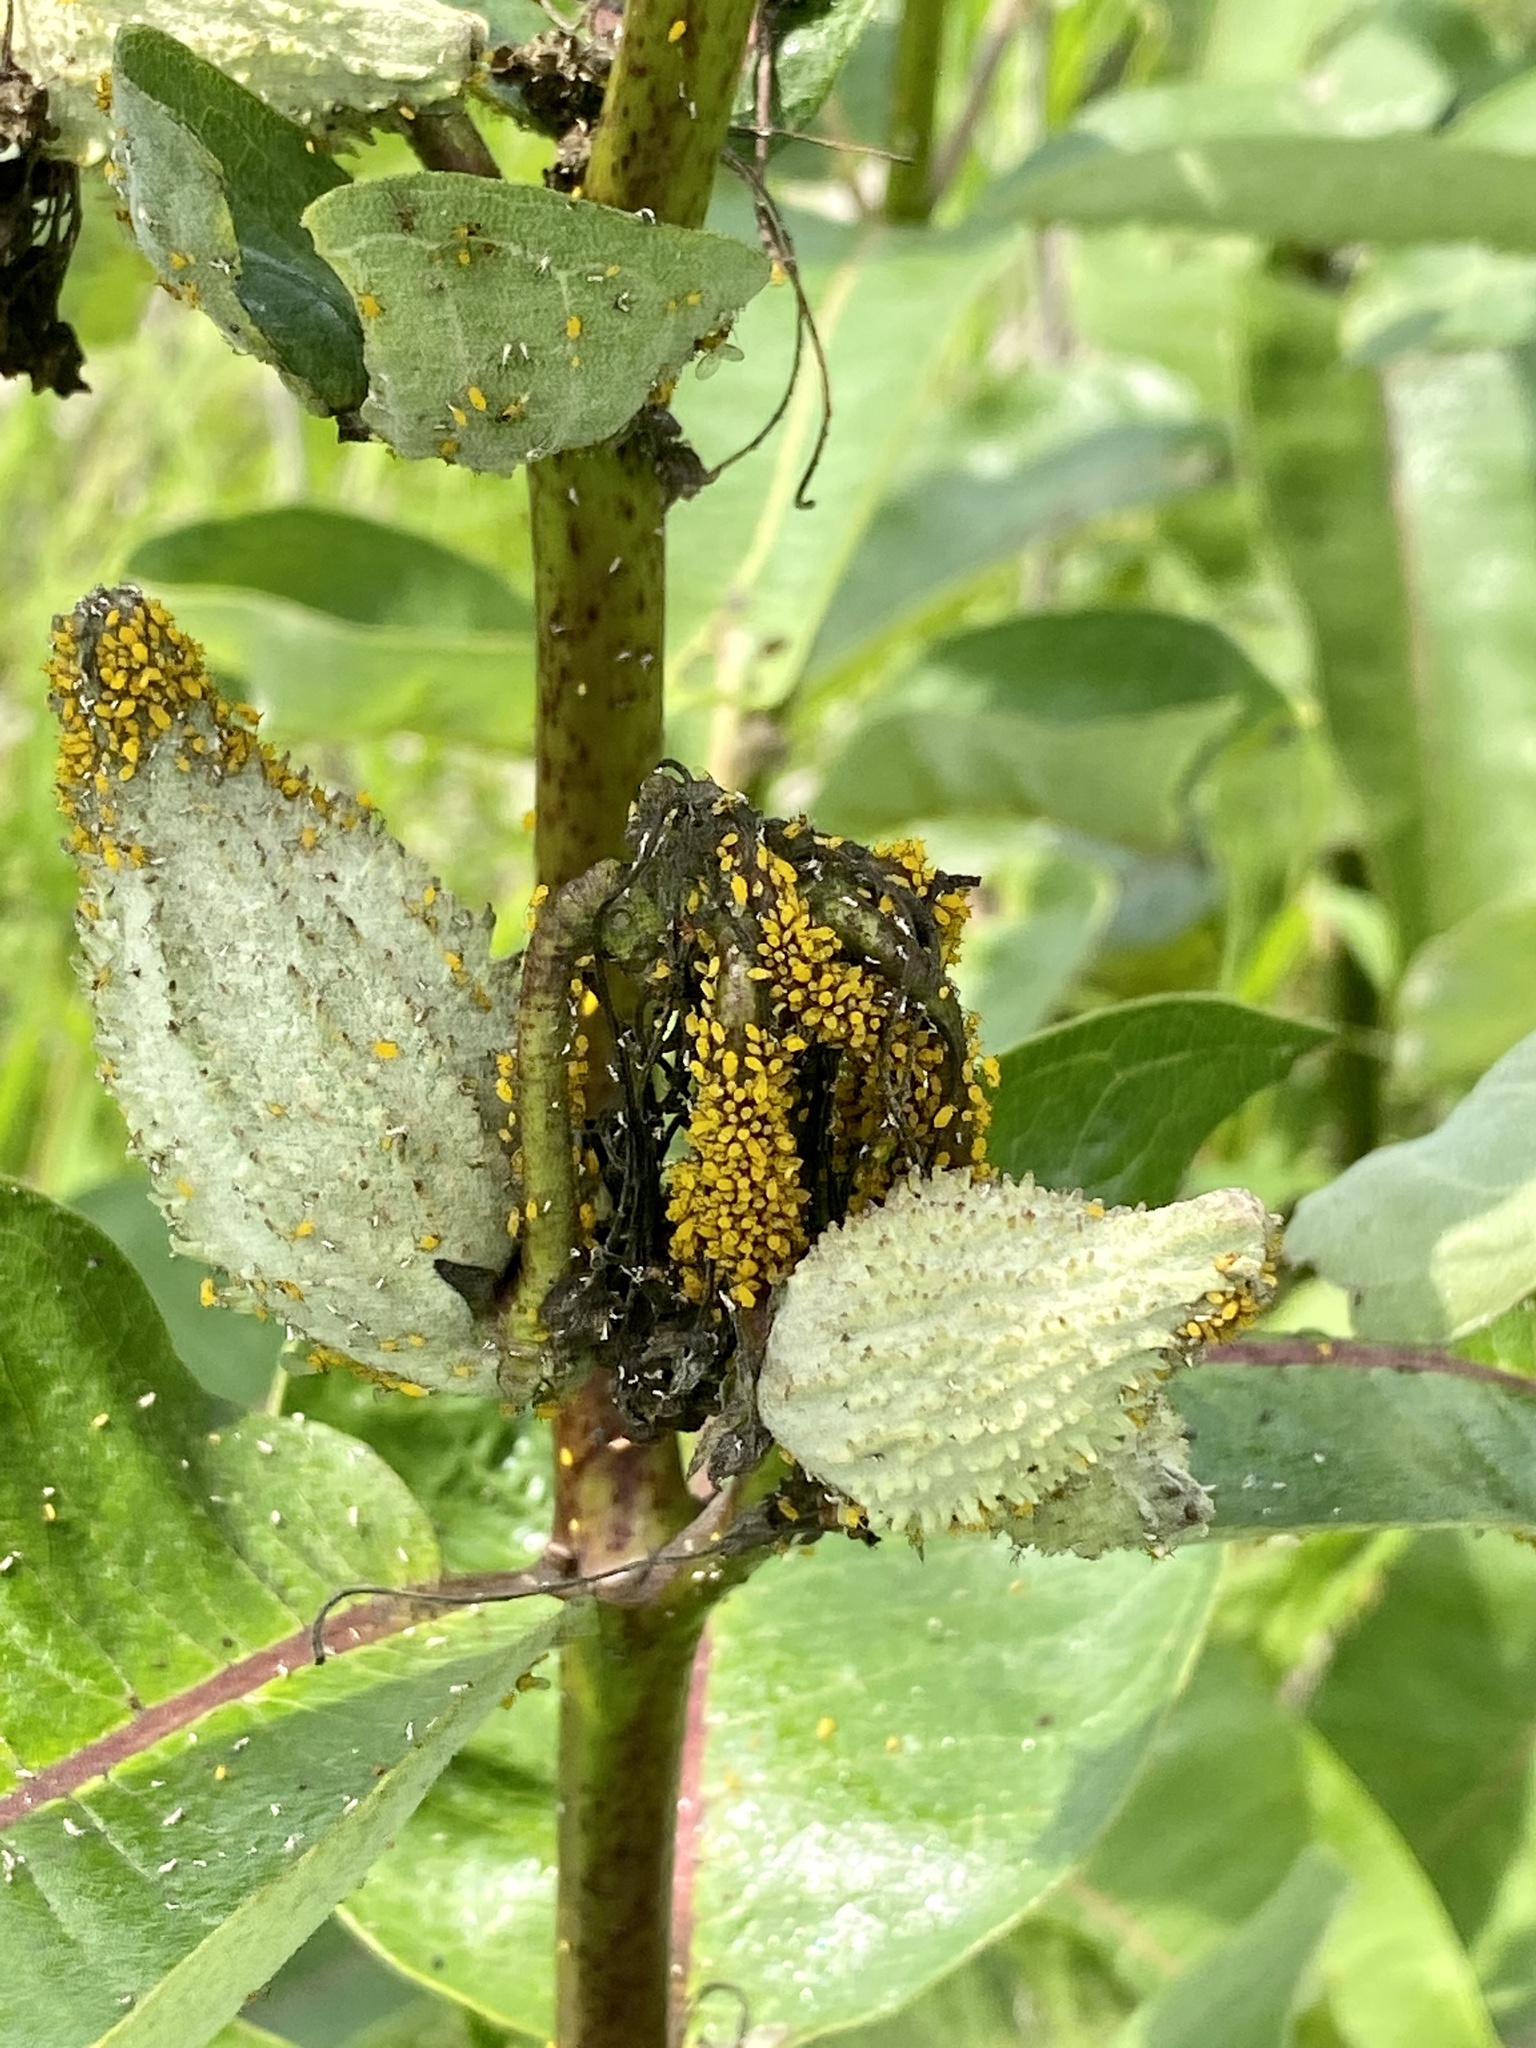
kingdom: Animalia
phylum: Arthropoda
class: Insecta
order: Hemiptera
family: Aphididae
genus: Aphis
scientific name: Aphis nerii
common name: Oleander aphid
